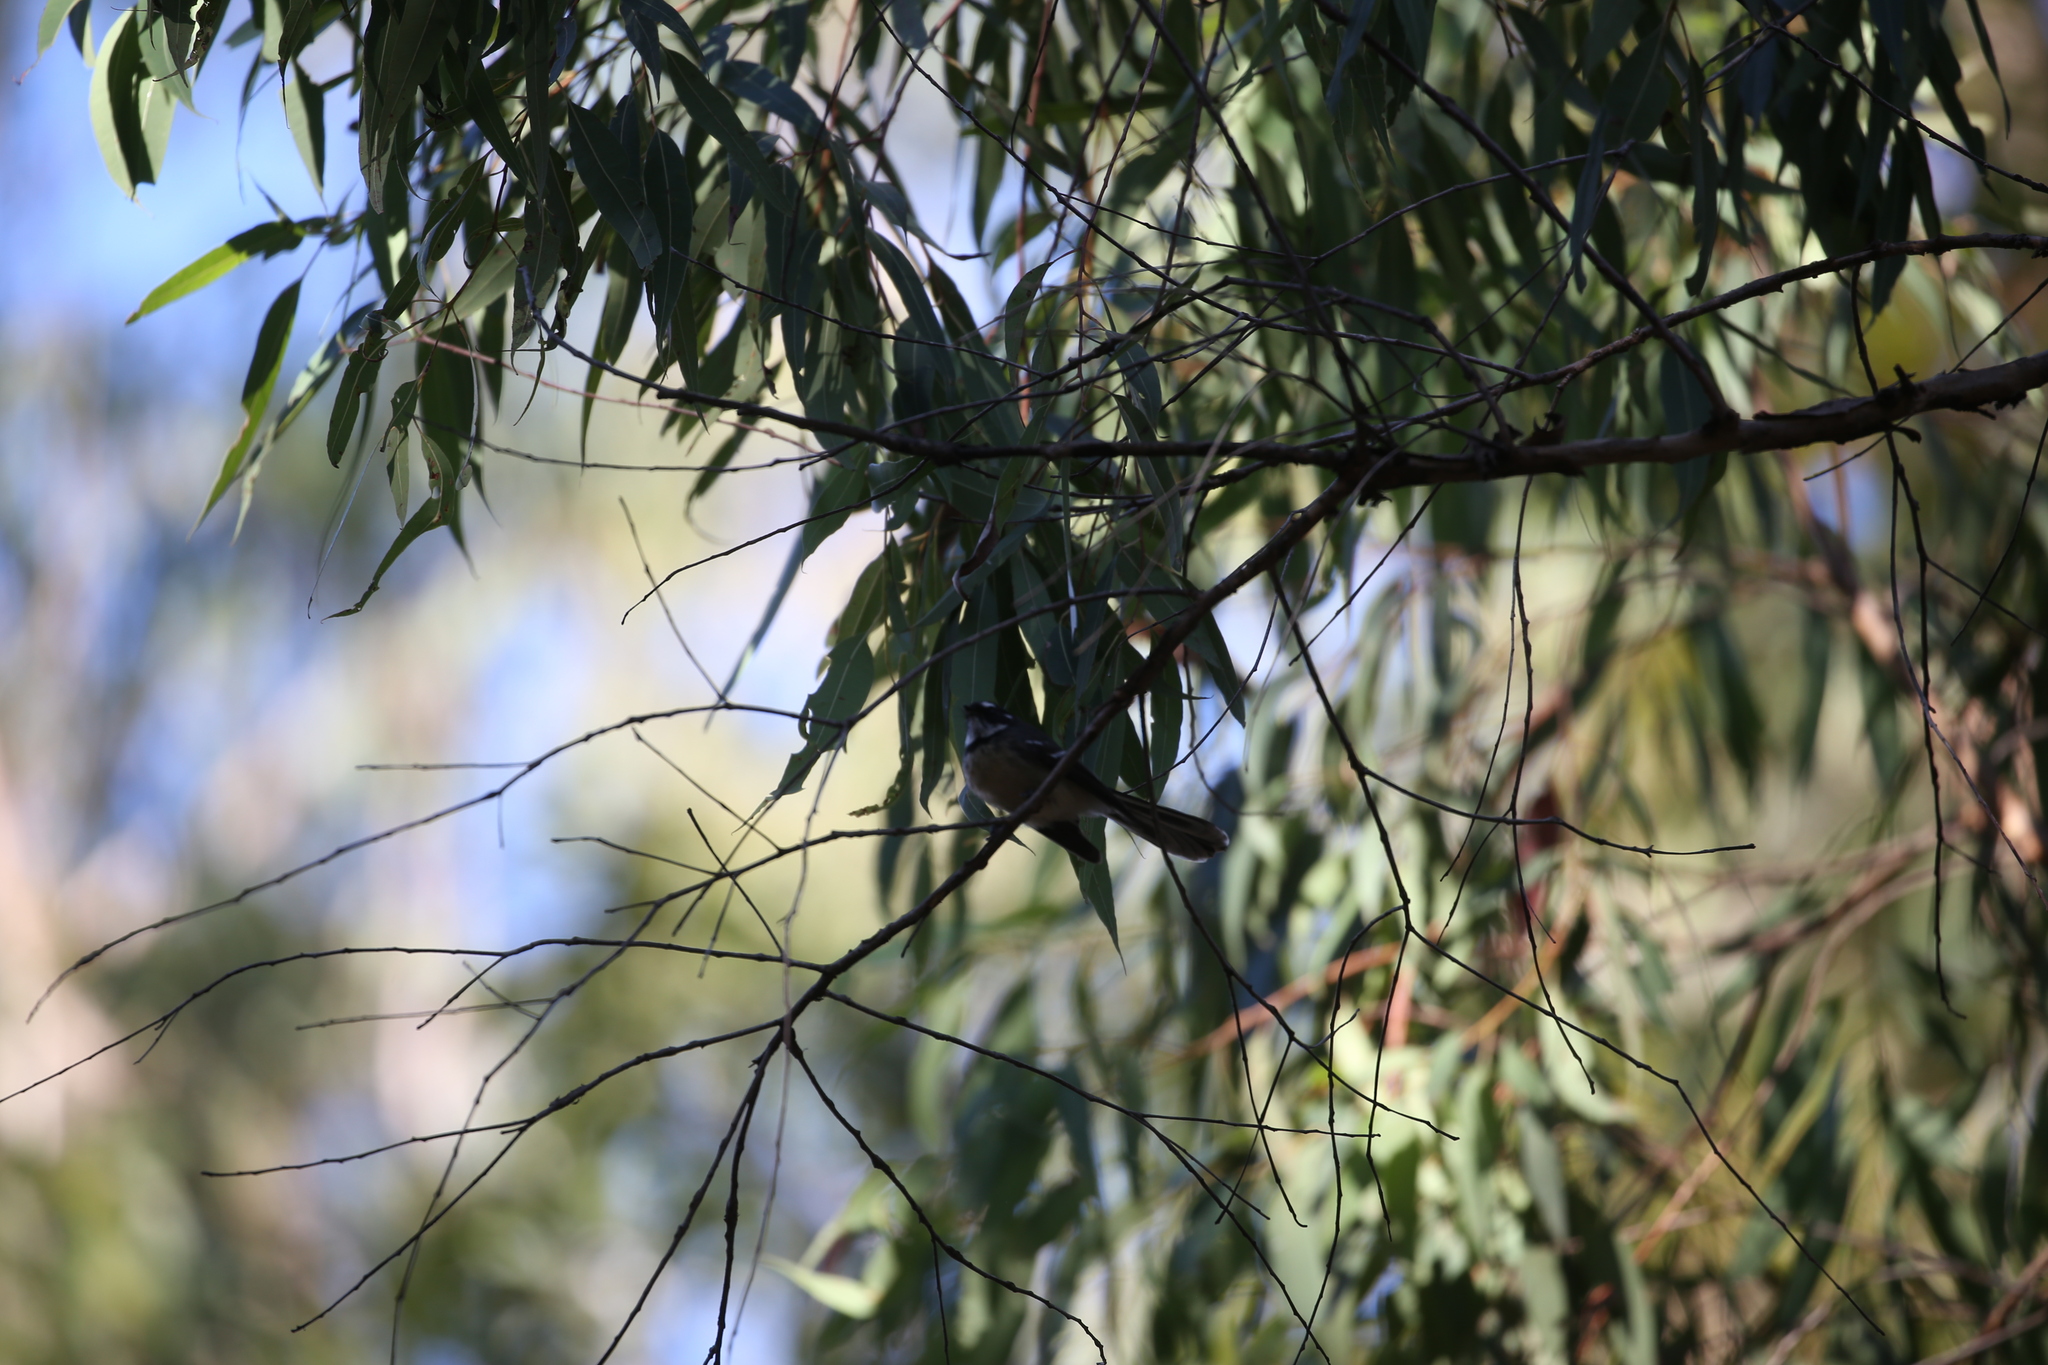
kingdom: Animalia
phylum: Chordata
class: Aves
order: Passeriformes
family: Rhipiduridae
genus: Rhipidura
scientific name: Rhipidura albiscapa
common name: Grey fantail
